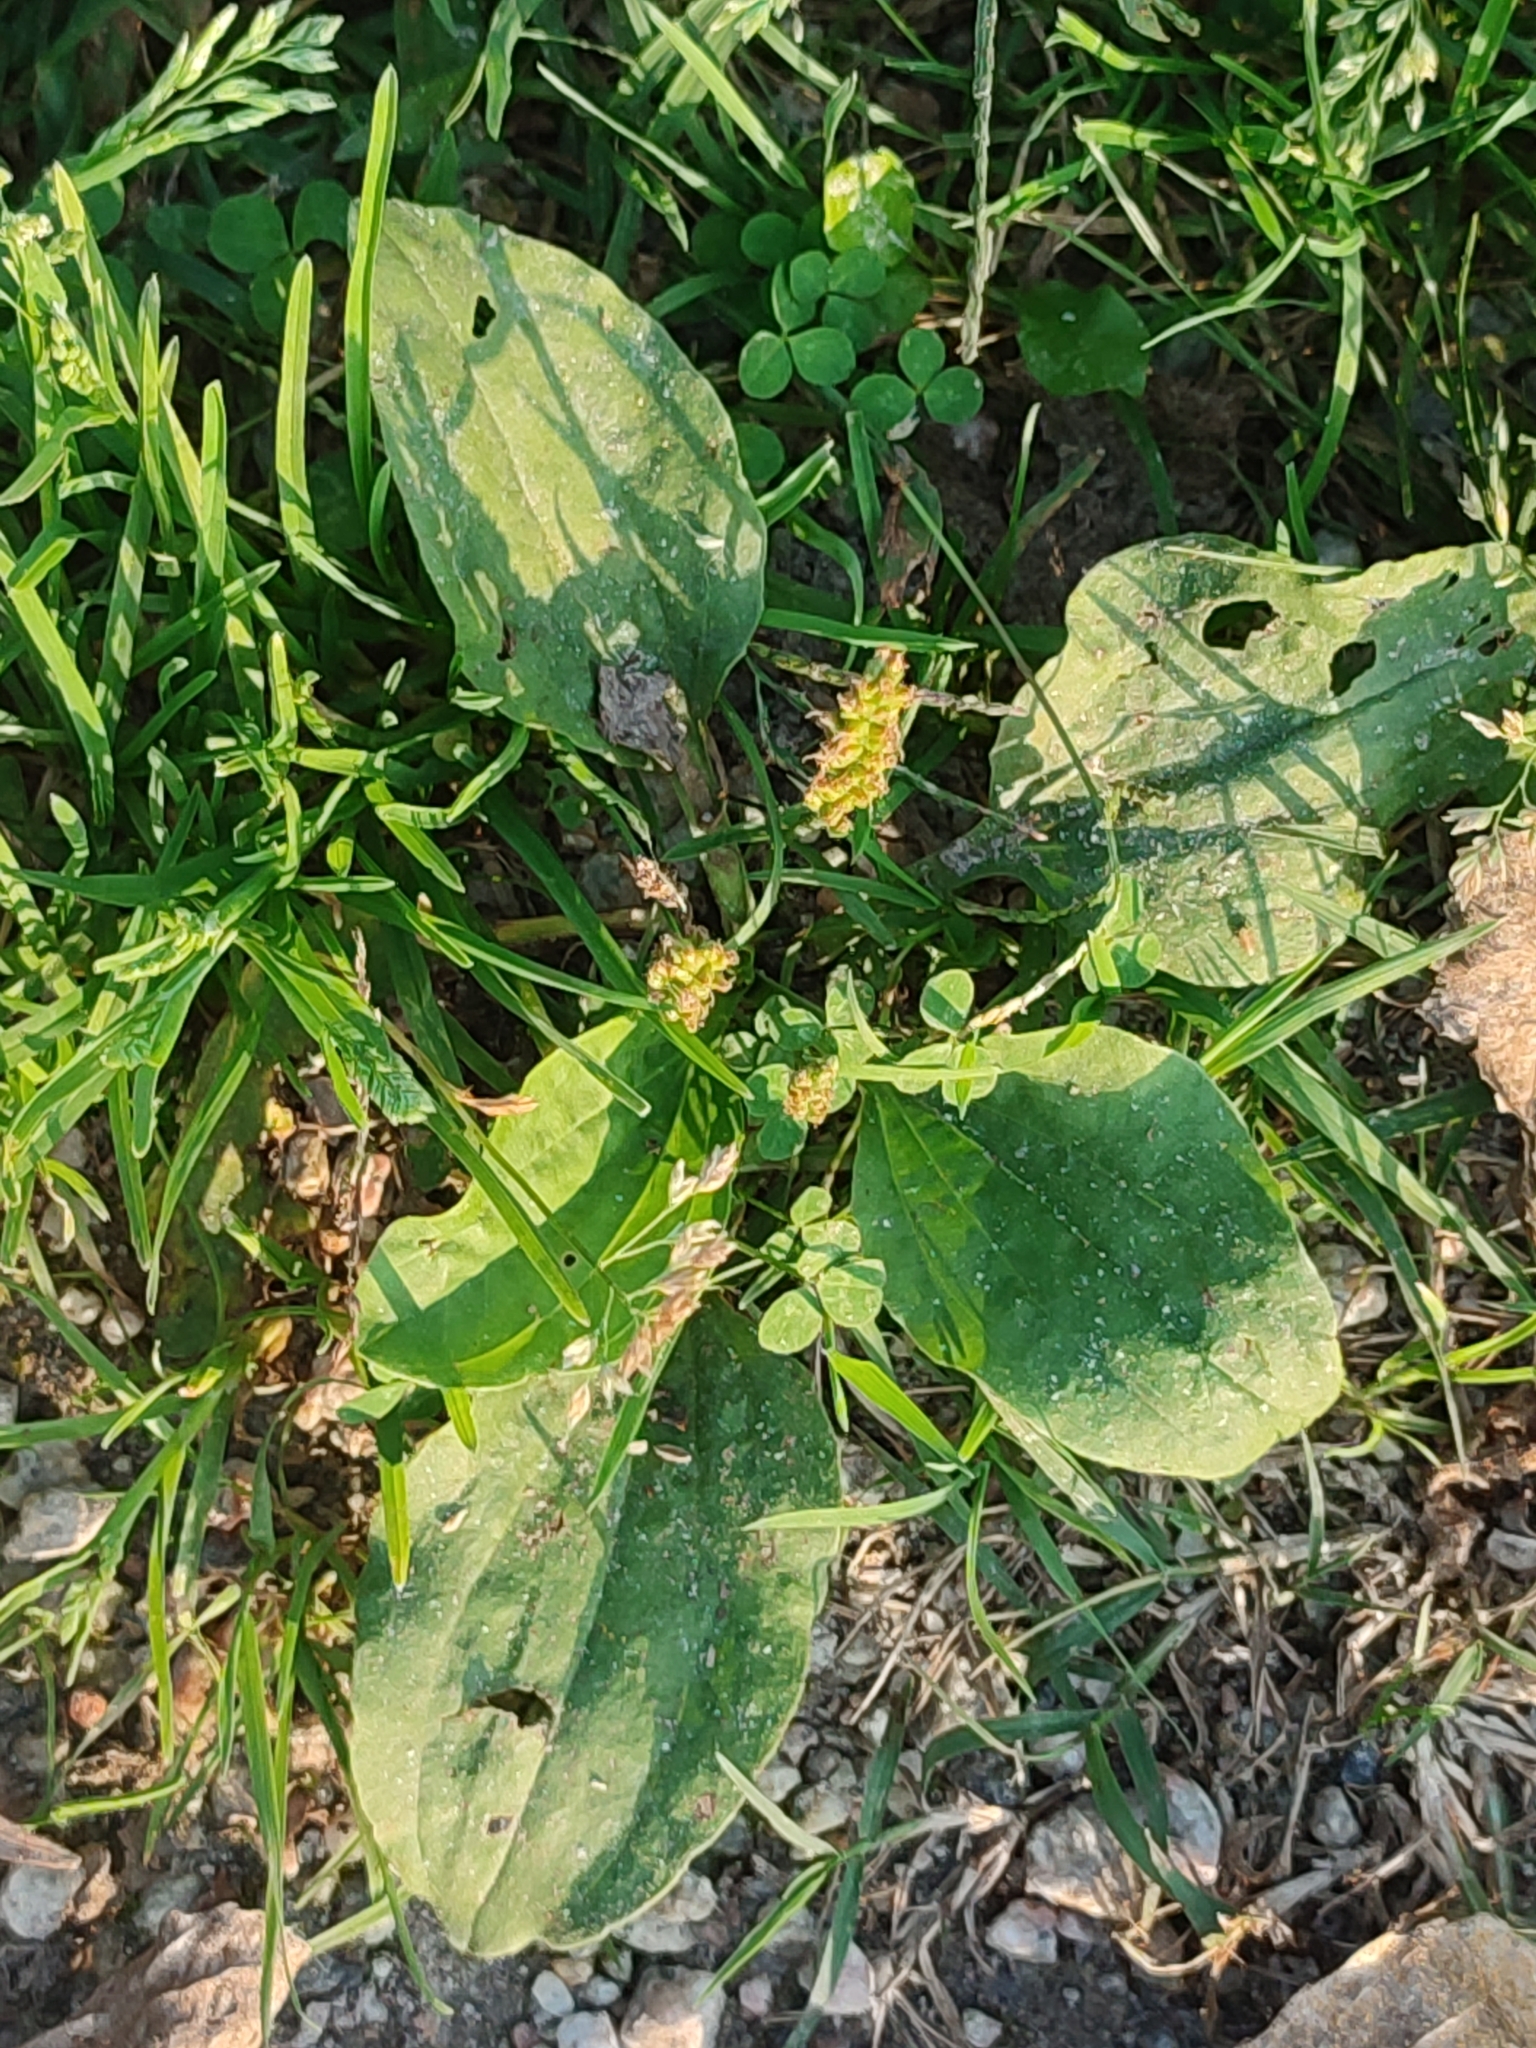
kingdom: Plantae
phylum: Tracheophyta
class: Magnoliopsida
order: Lamiales
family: Plantaginaceae
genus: Plantago
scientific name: Plantago major
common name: Common plantain
